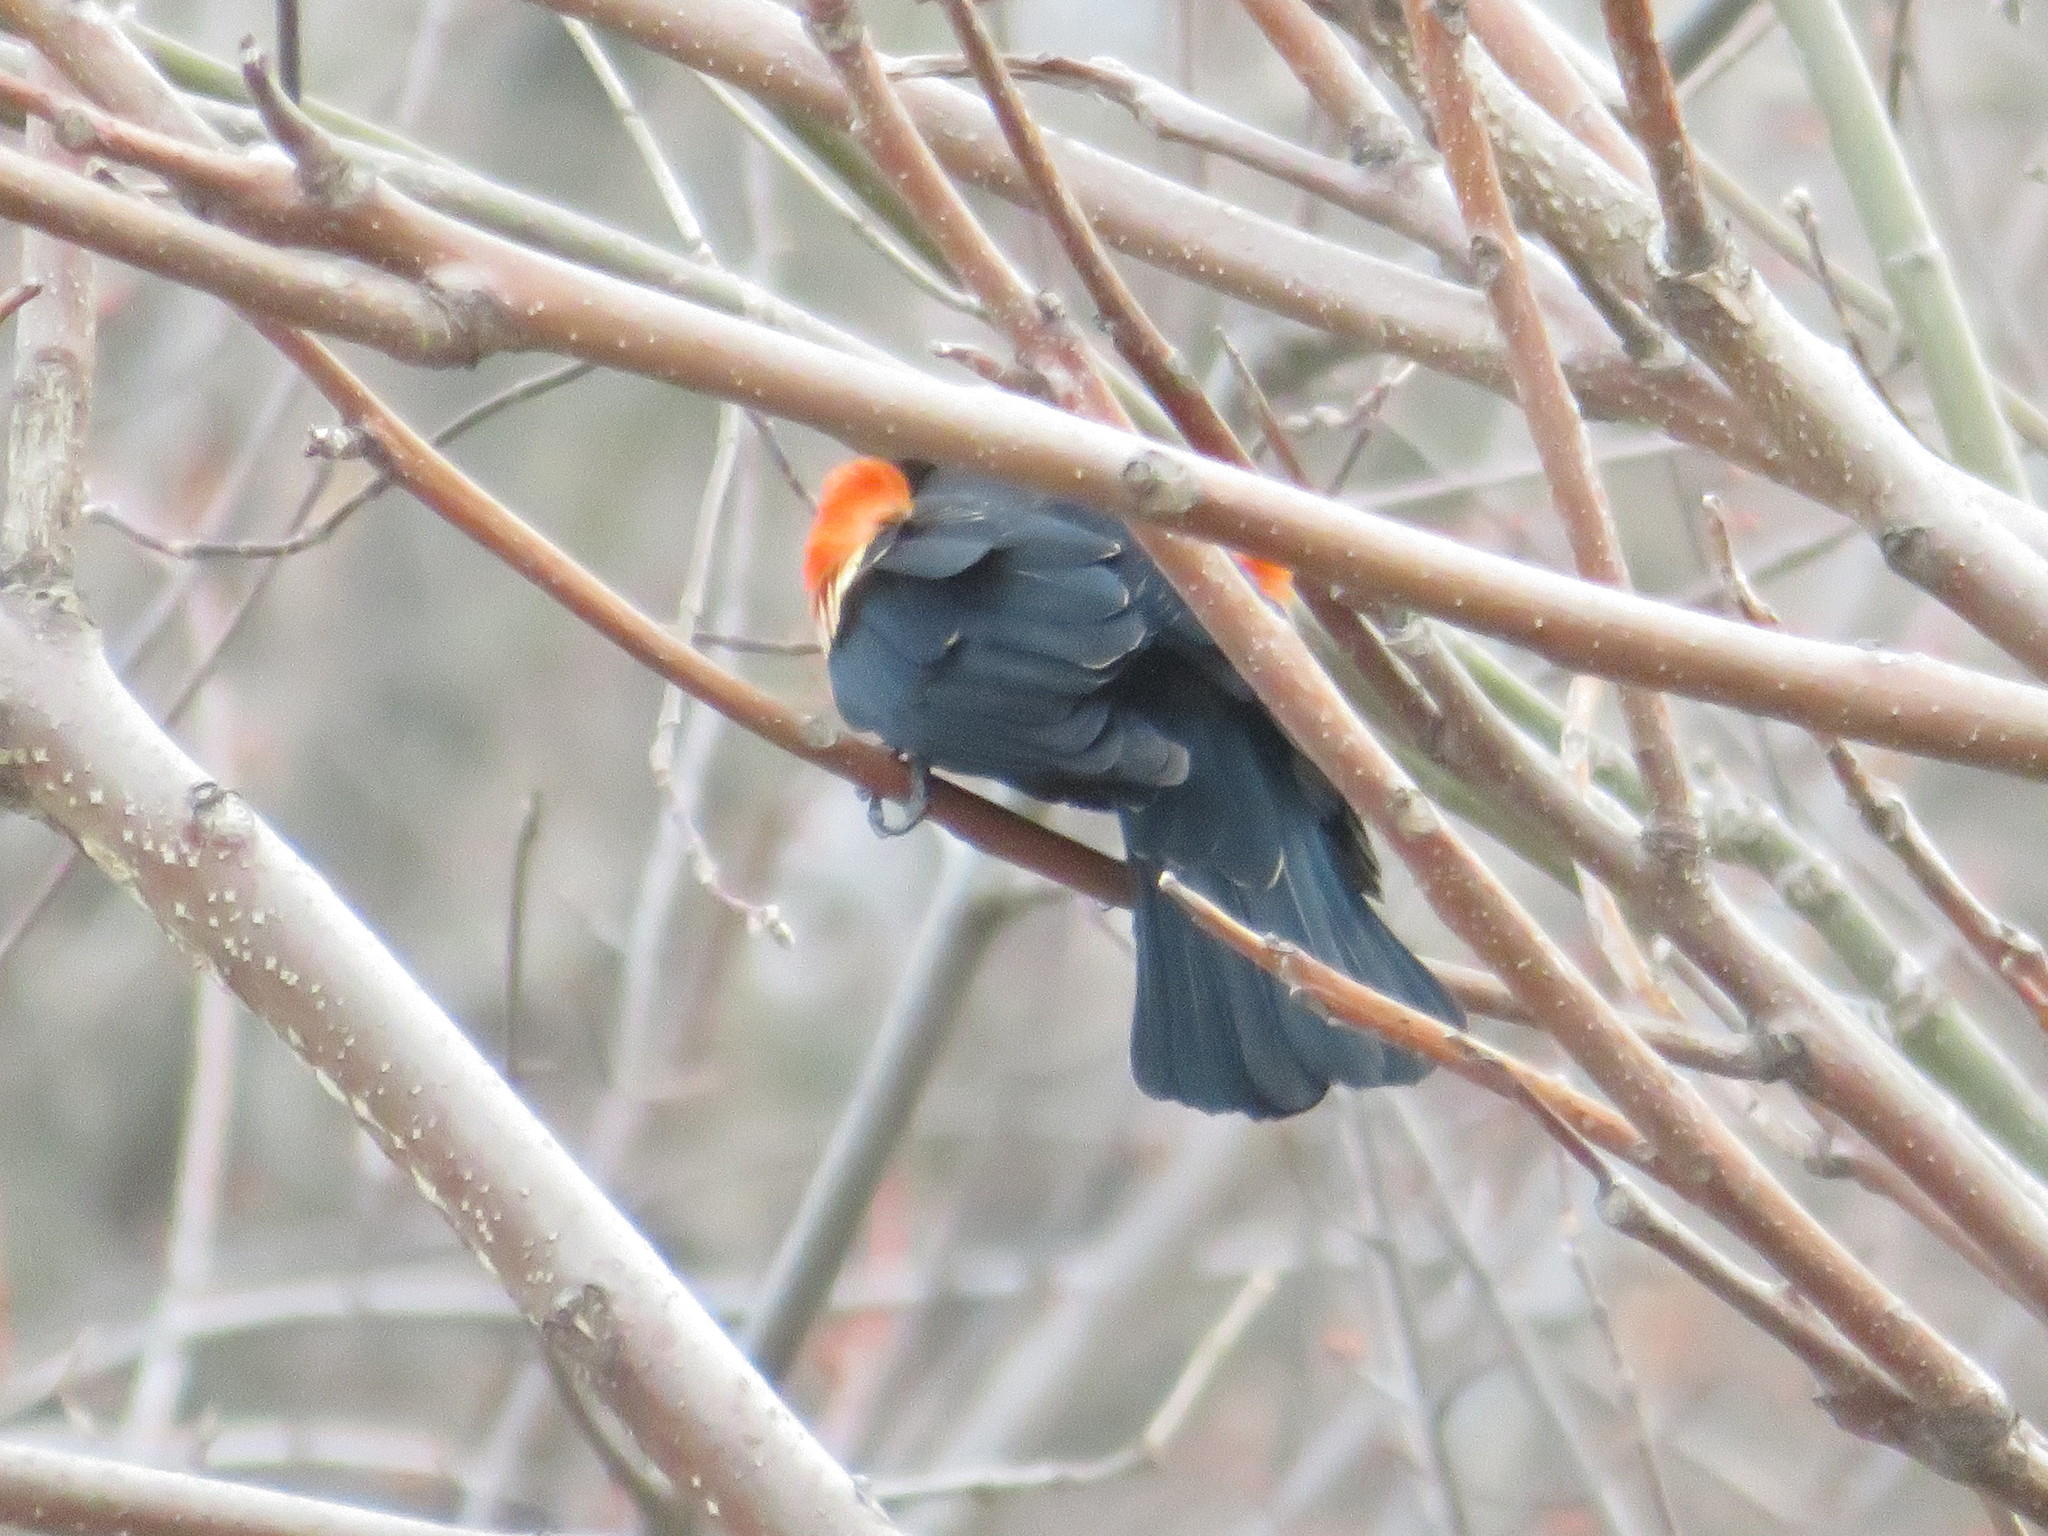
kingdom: Animalia
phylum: Chordata
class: Aves
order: Passeriformes
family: Icteridae
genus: Agelaius
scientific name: Agelaius phoeniceus
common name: Red-winged blackbird
